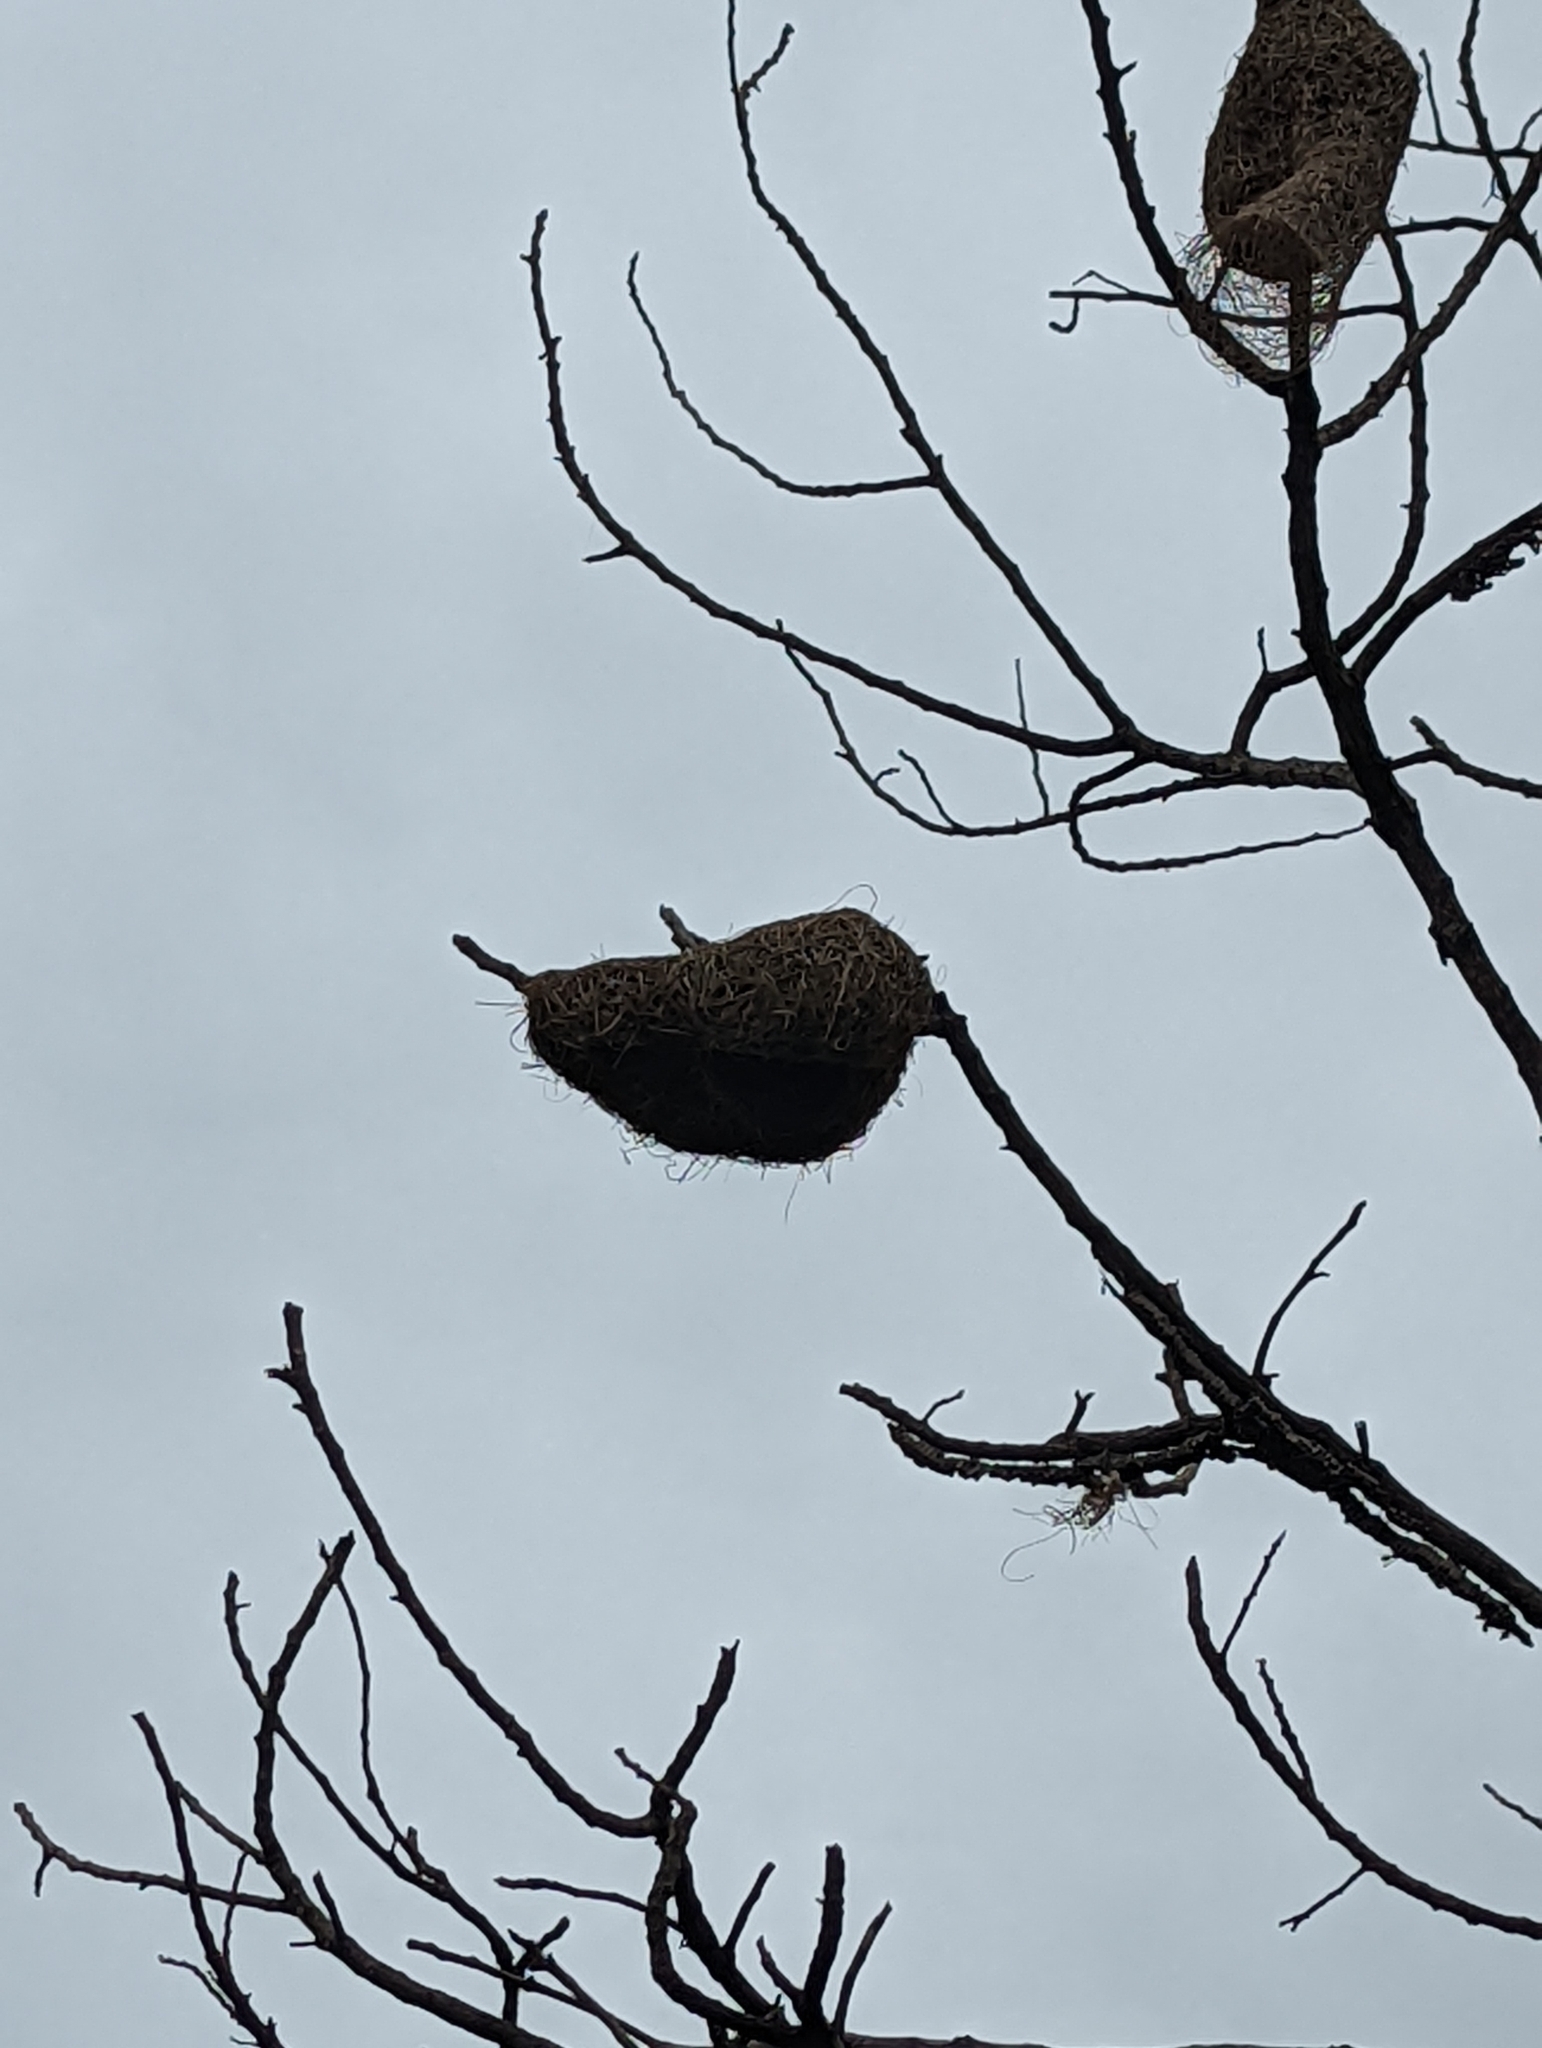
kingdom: Animalia
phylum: Chordata
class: Aves
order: Passeriformes
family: Ploceidae
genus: Ploceus
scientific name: Ploceus philippinus
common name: Baya weaver
